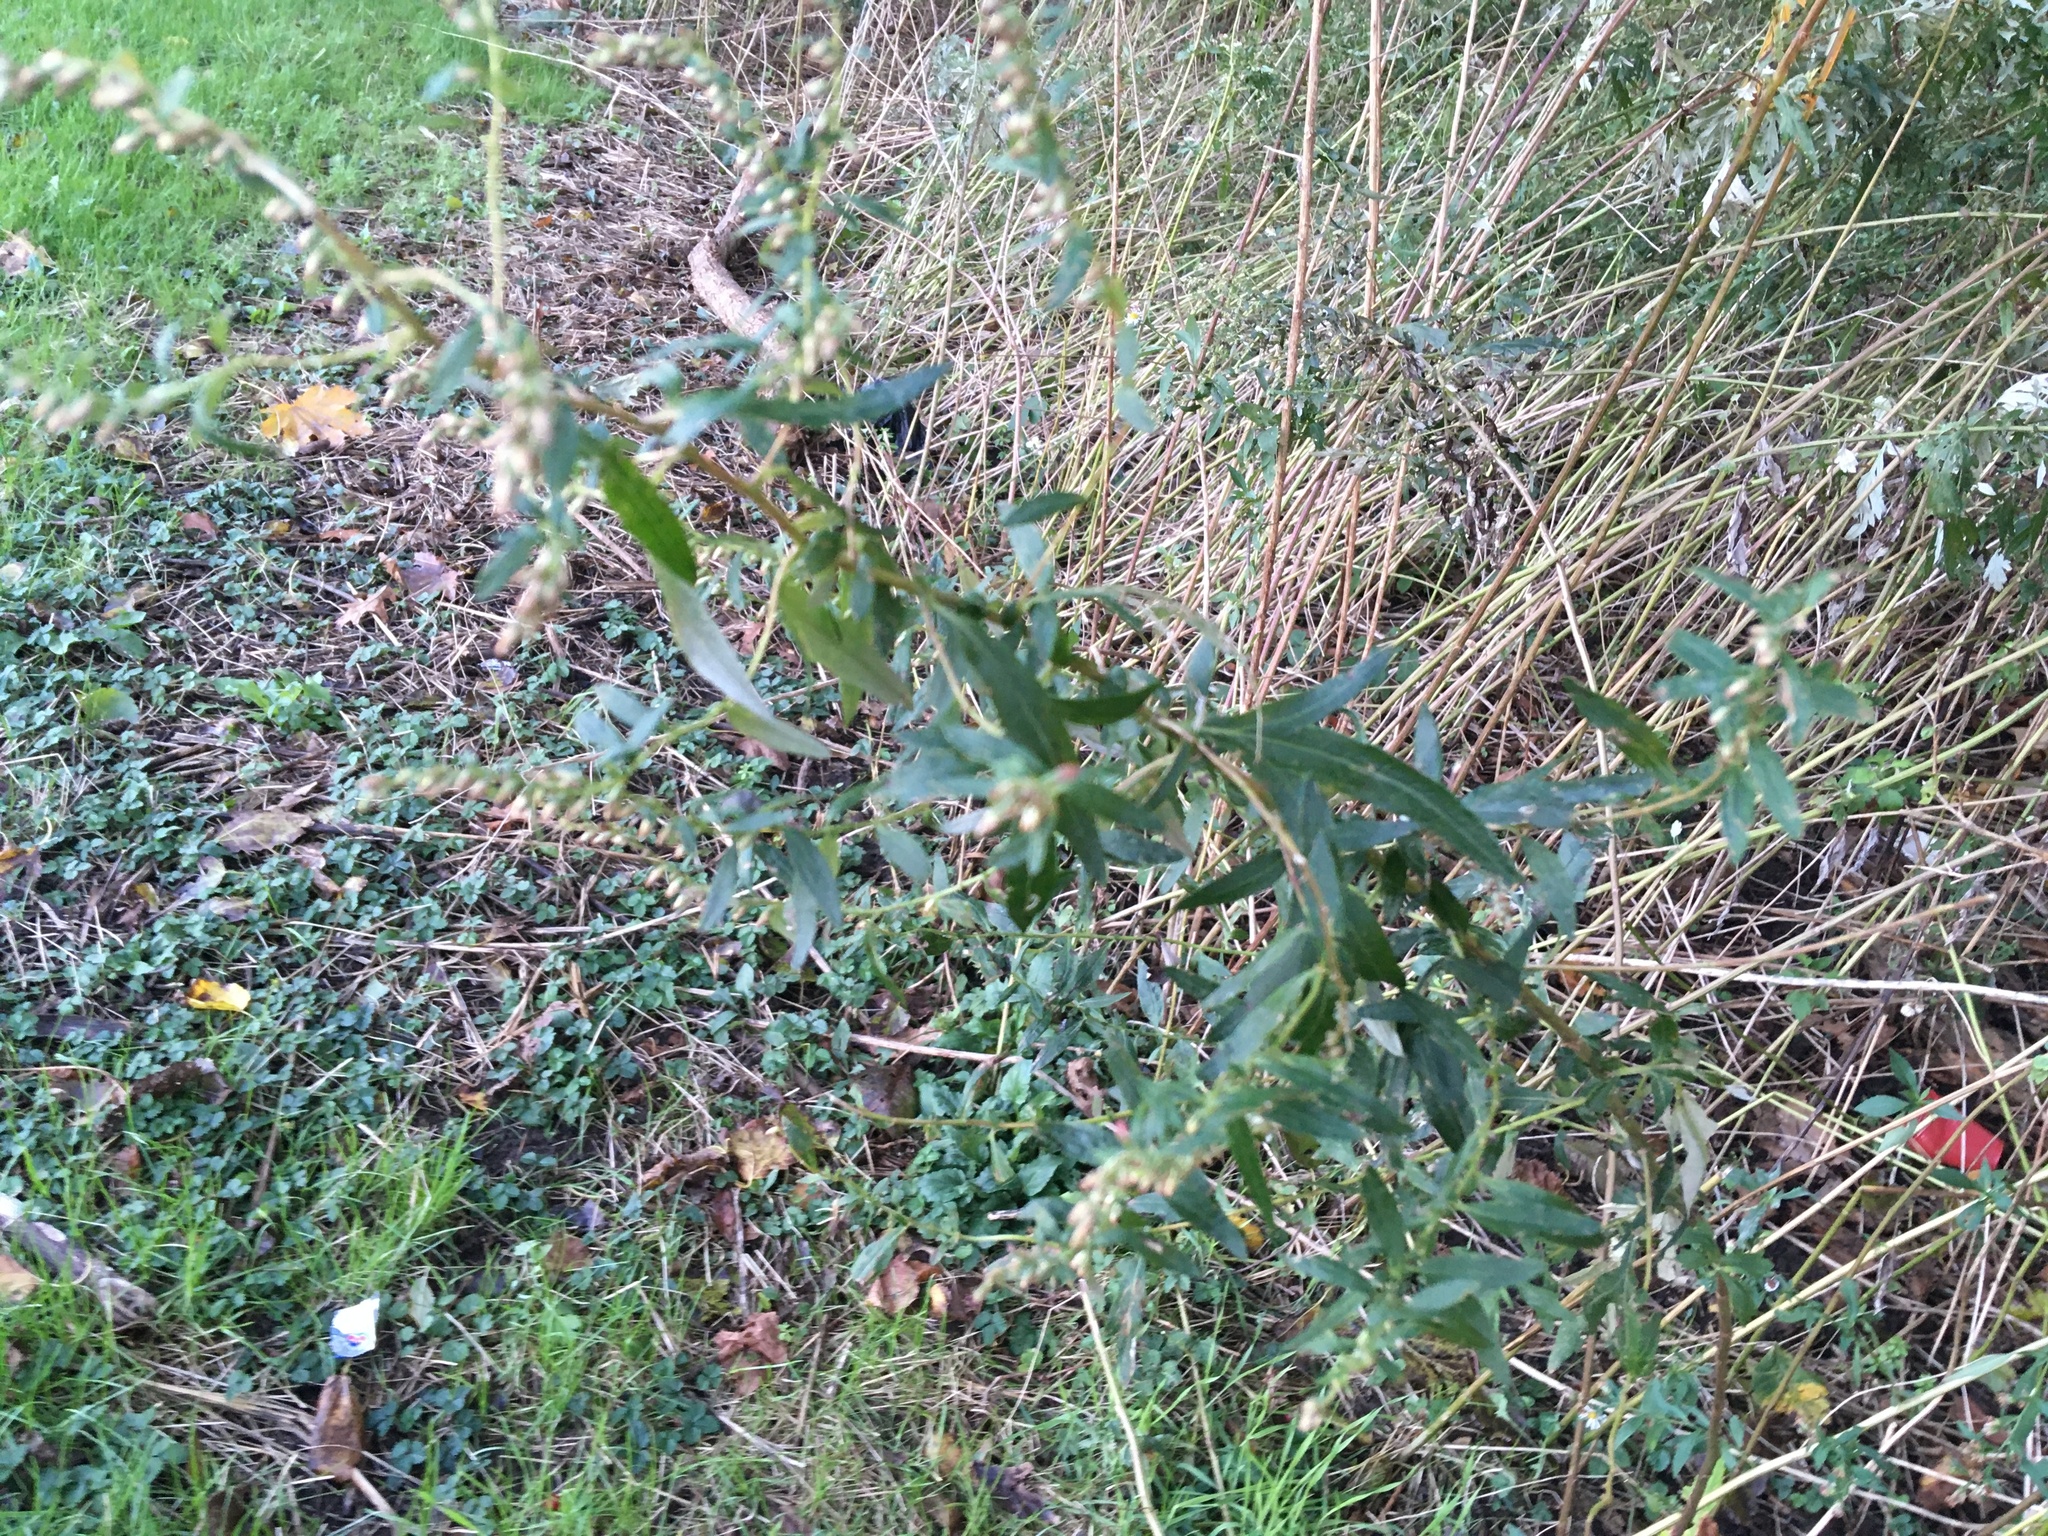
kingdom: Plantae
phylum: Tracheophyta
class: Magnoliopsida
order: Asterales
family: Asteraceae
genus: Artemisia
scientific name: Artemisia vulgaris
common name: Mugwort
